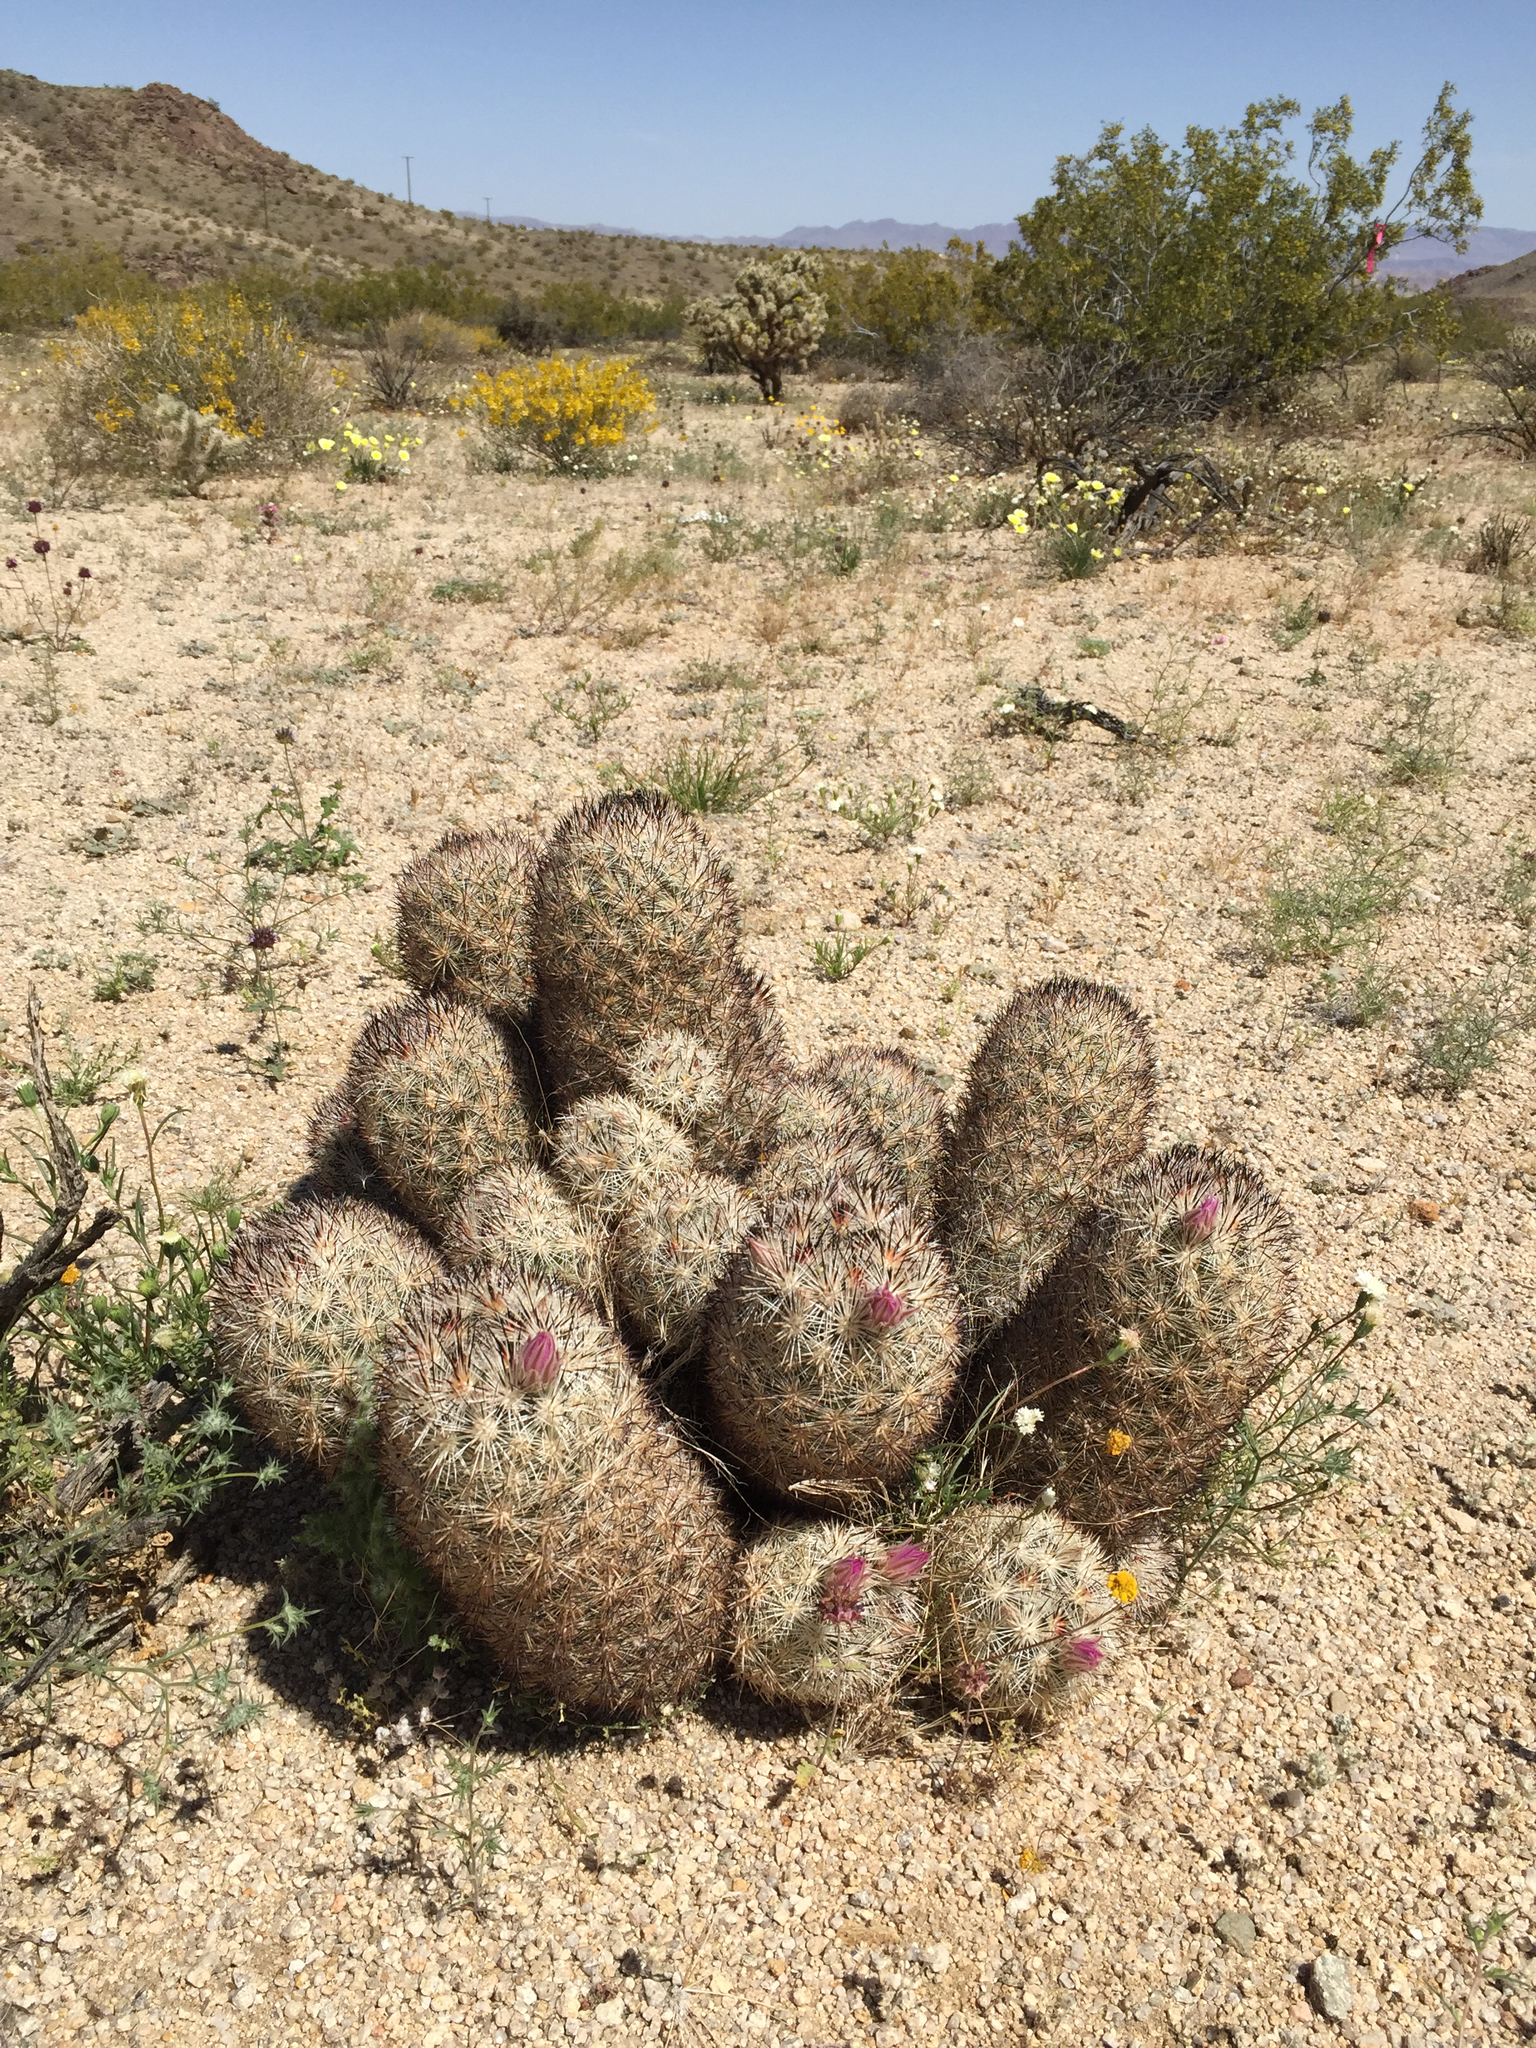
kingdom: Plantae
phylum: Tracheophyta
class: Magnoliopsida
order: Caryophyllales
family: Cactaceae
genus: Pelecyphora
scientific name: Pelecyphora alversonii
